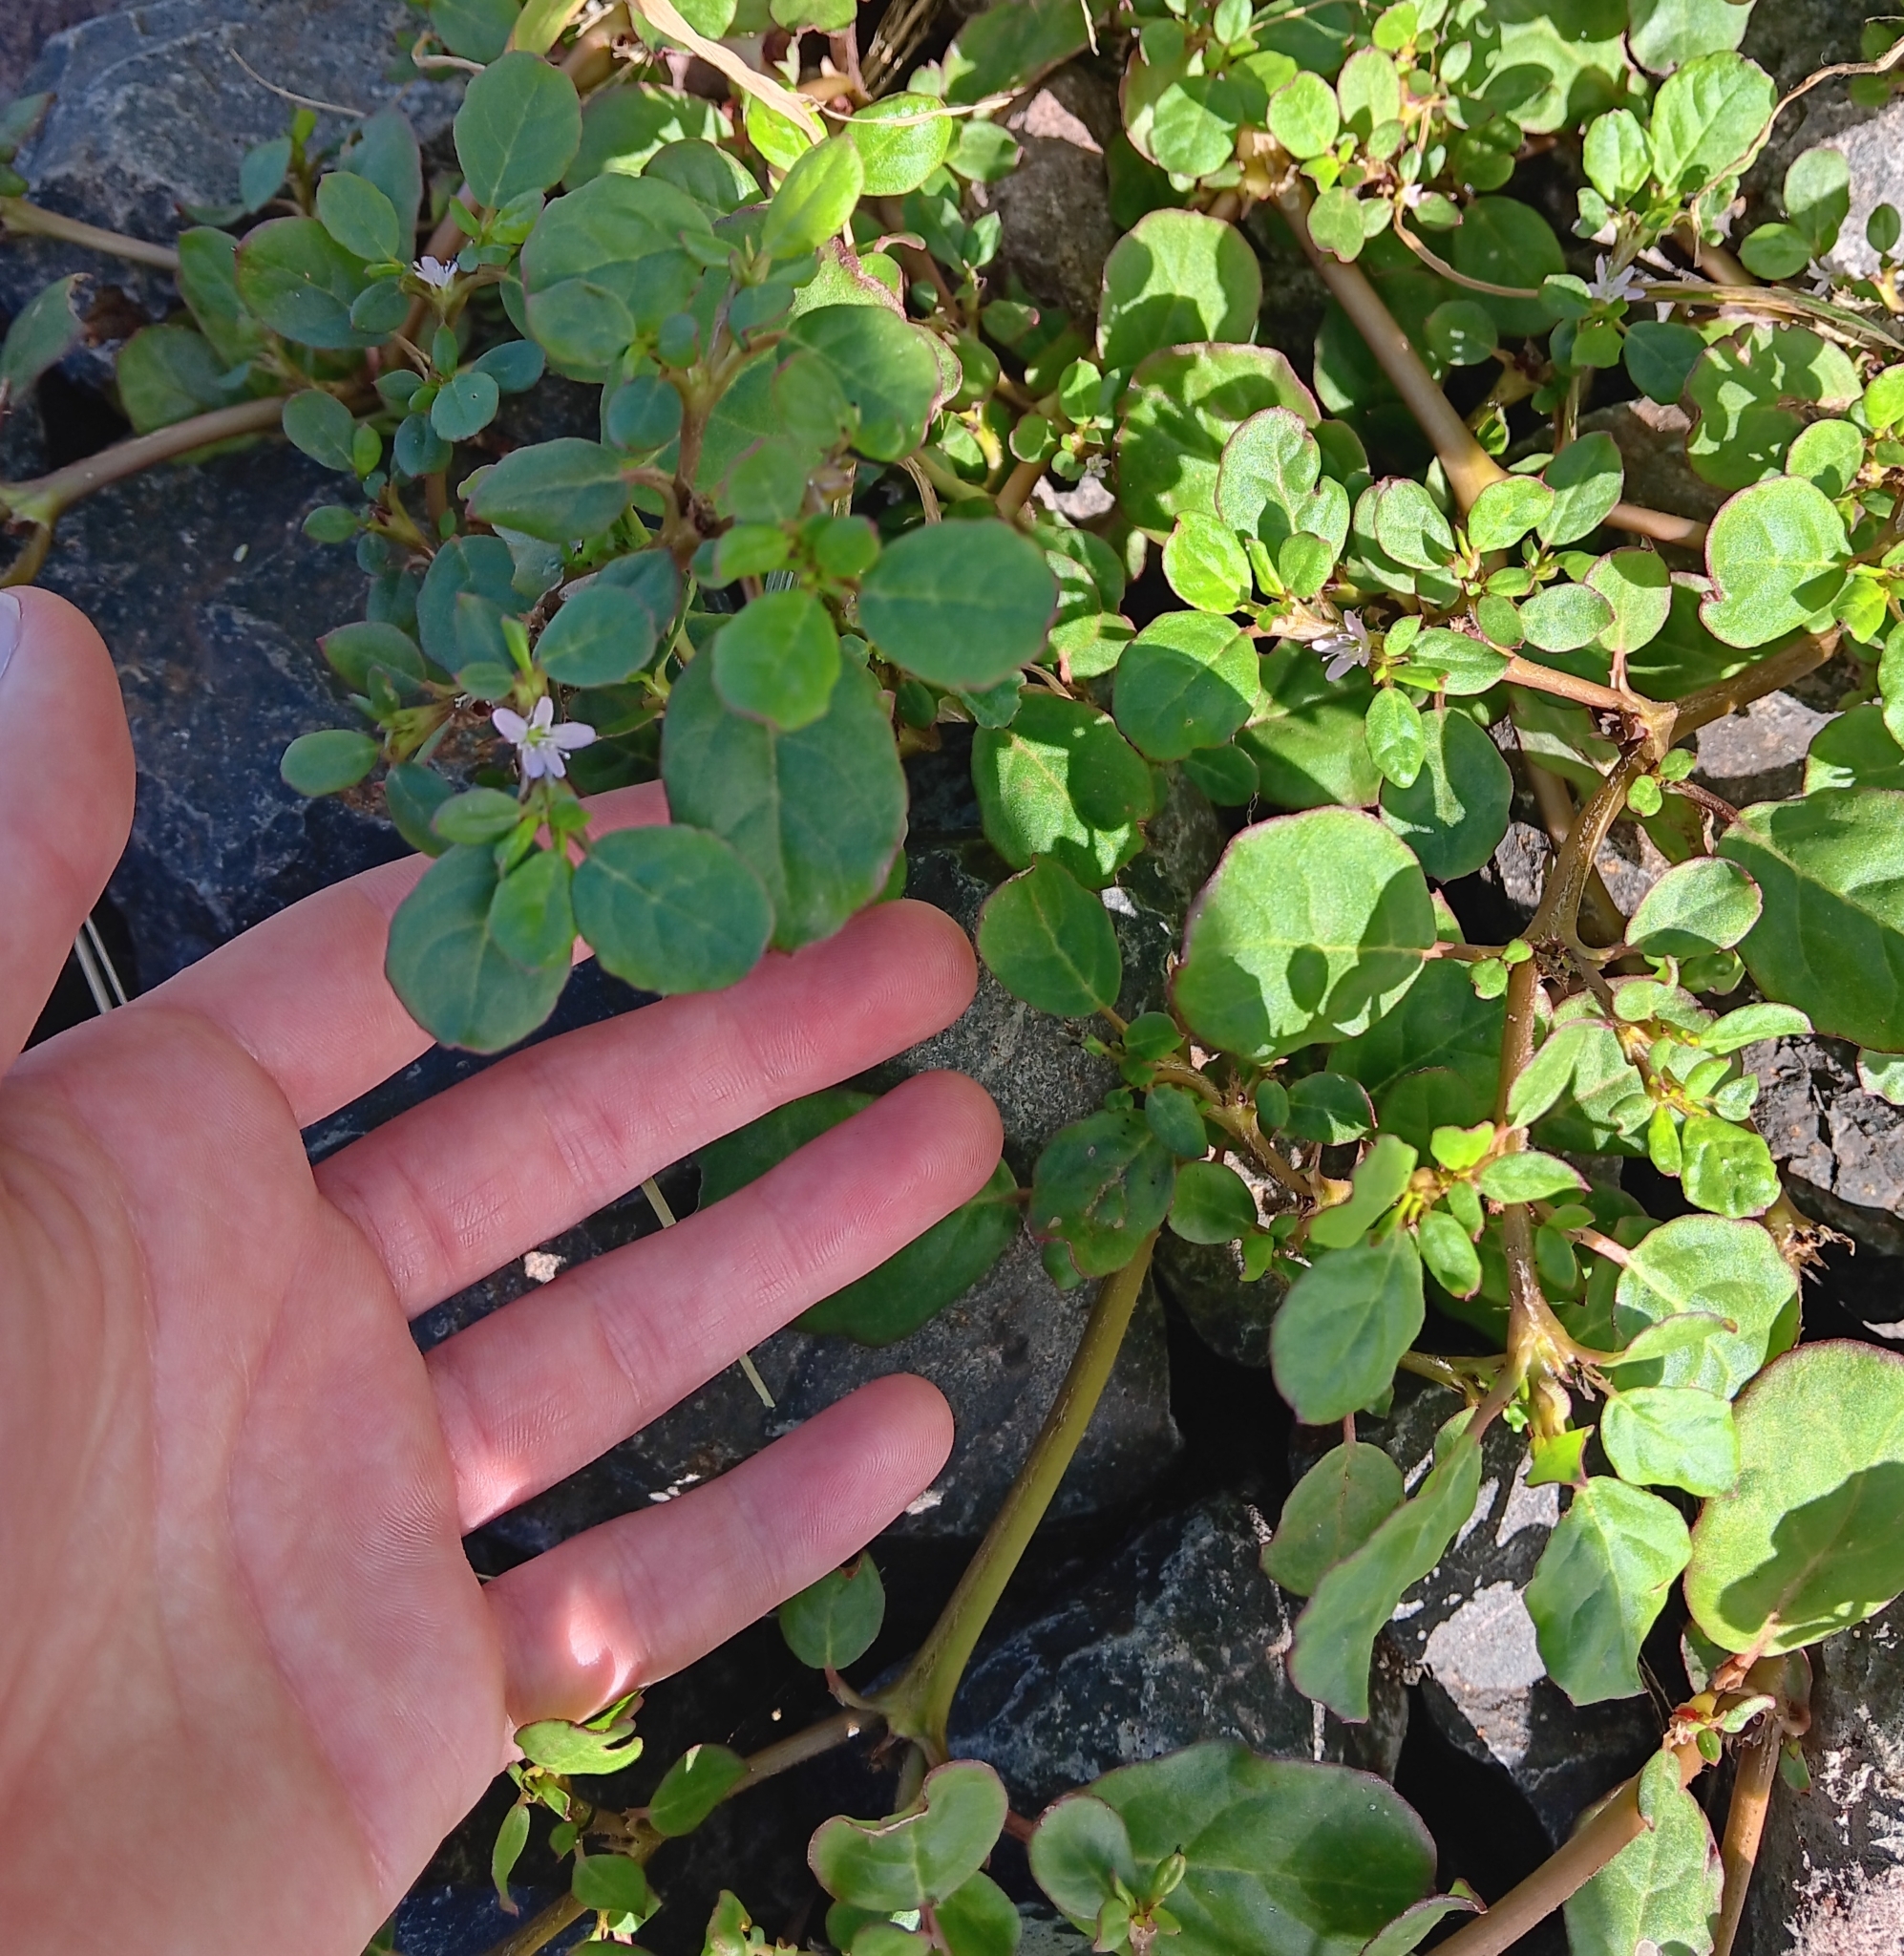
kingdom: Plantae
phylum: Tracheophyta
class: Magnoliopsida
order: Caryophyllales
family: Aizoaceae
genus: Trianthema
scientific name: Trianthema portulacastrum
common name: Desert horsepurslane
